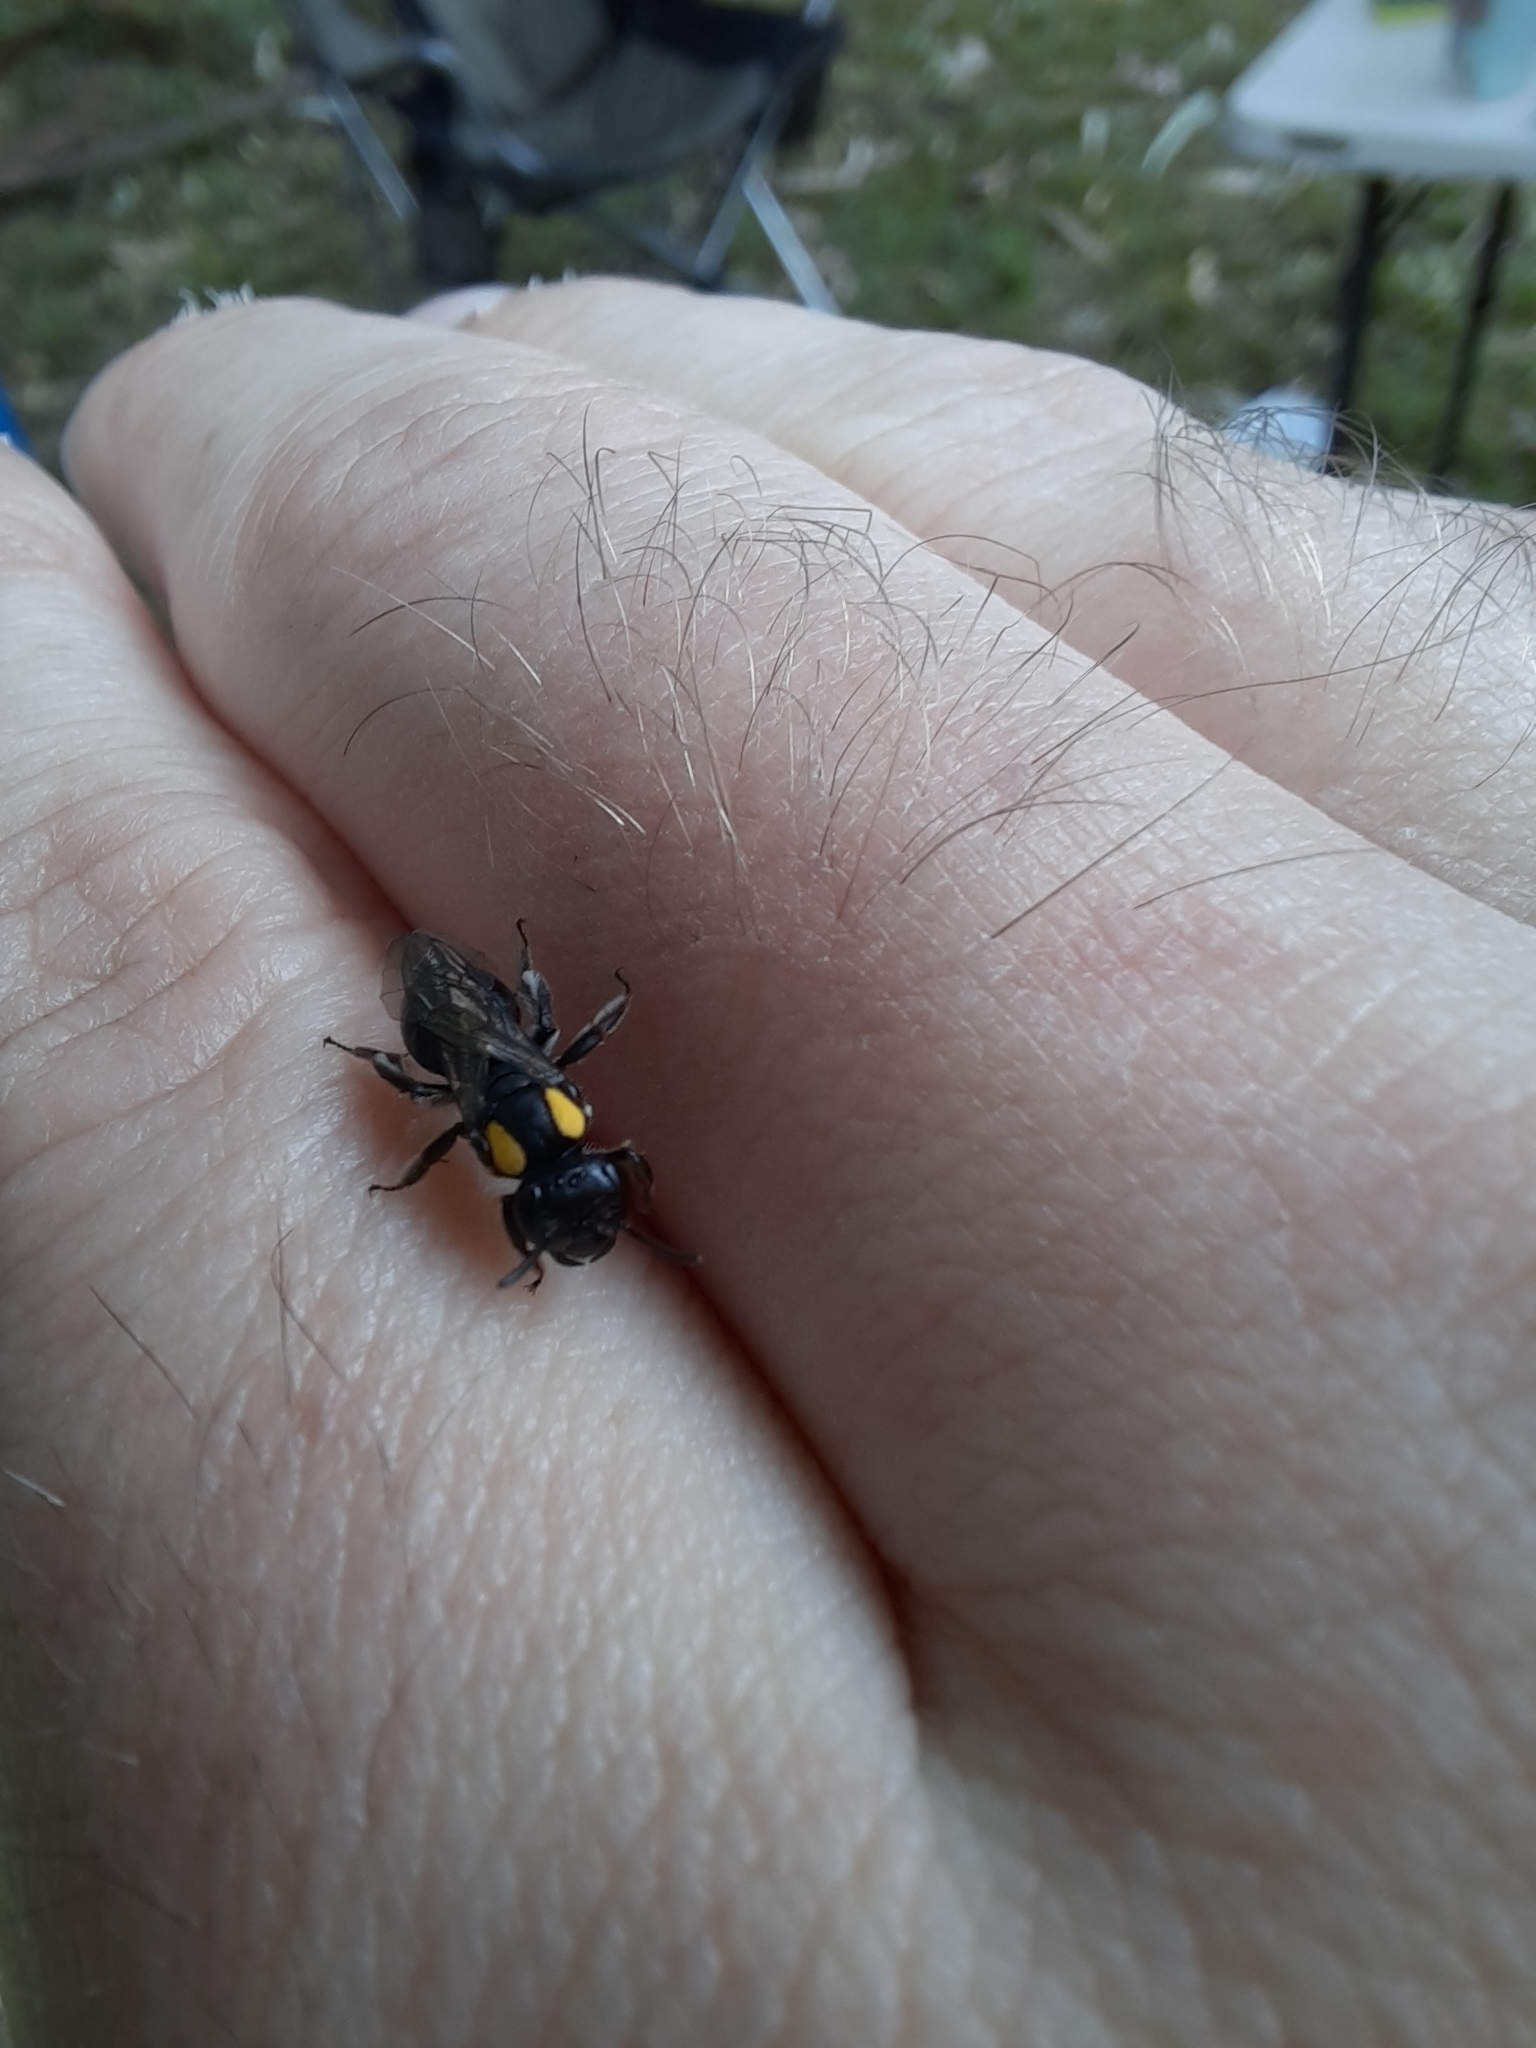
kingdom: Animalia
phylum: Arthropoda
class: Insecta
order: Hymenoptera
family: Colletidae
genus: Leioproctus
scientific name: Leioproctus irroratus
